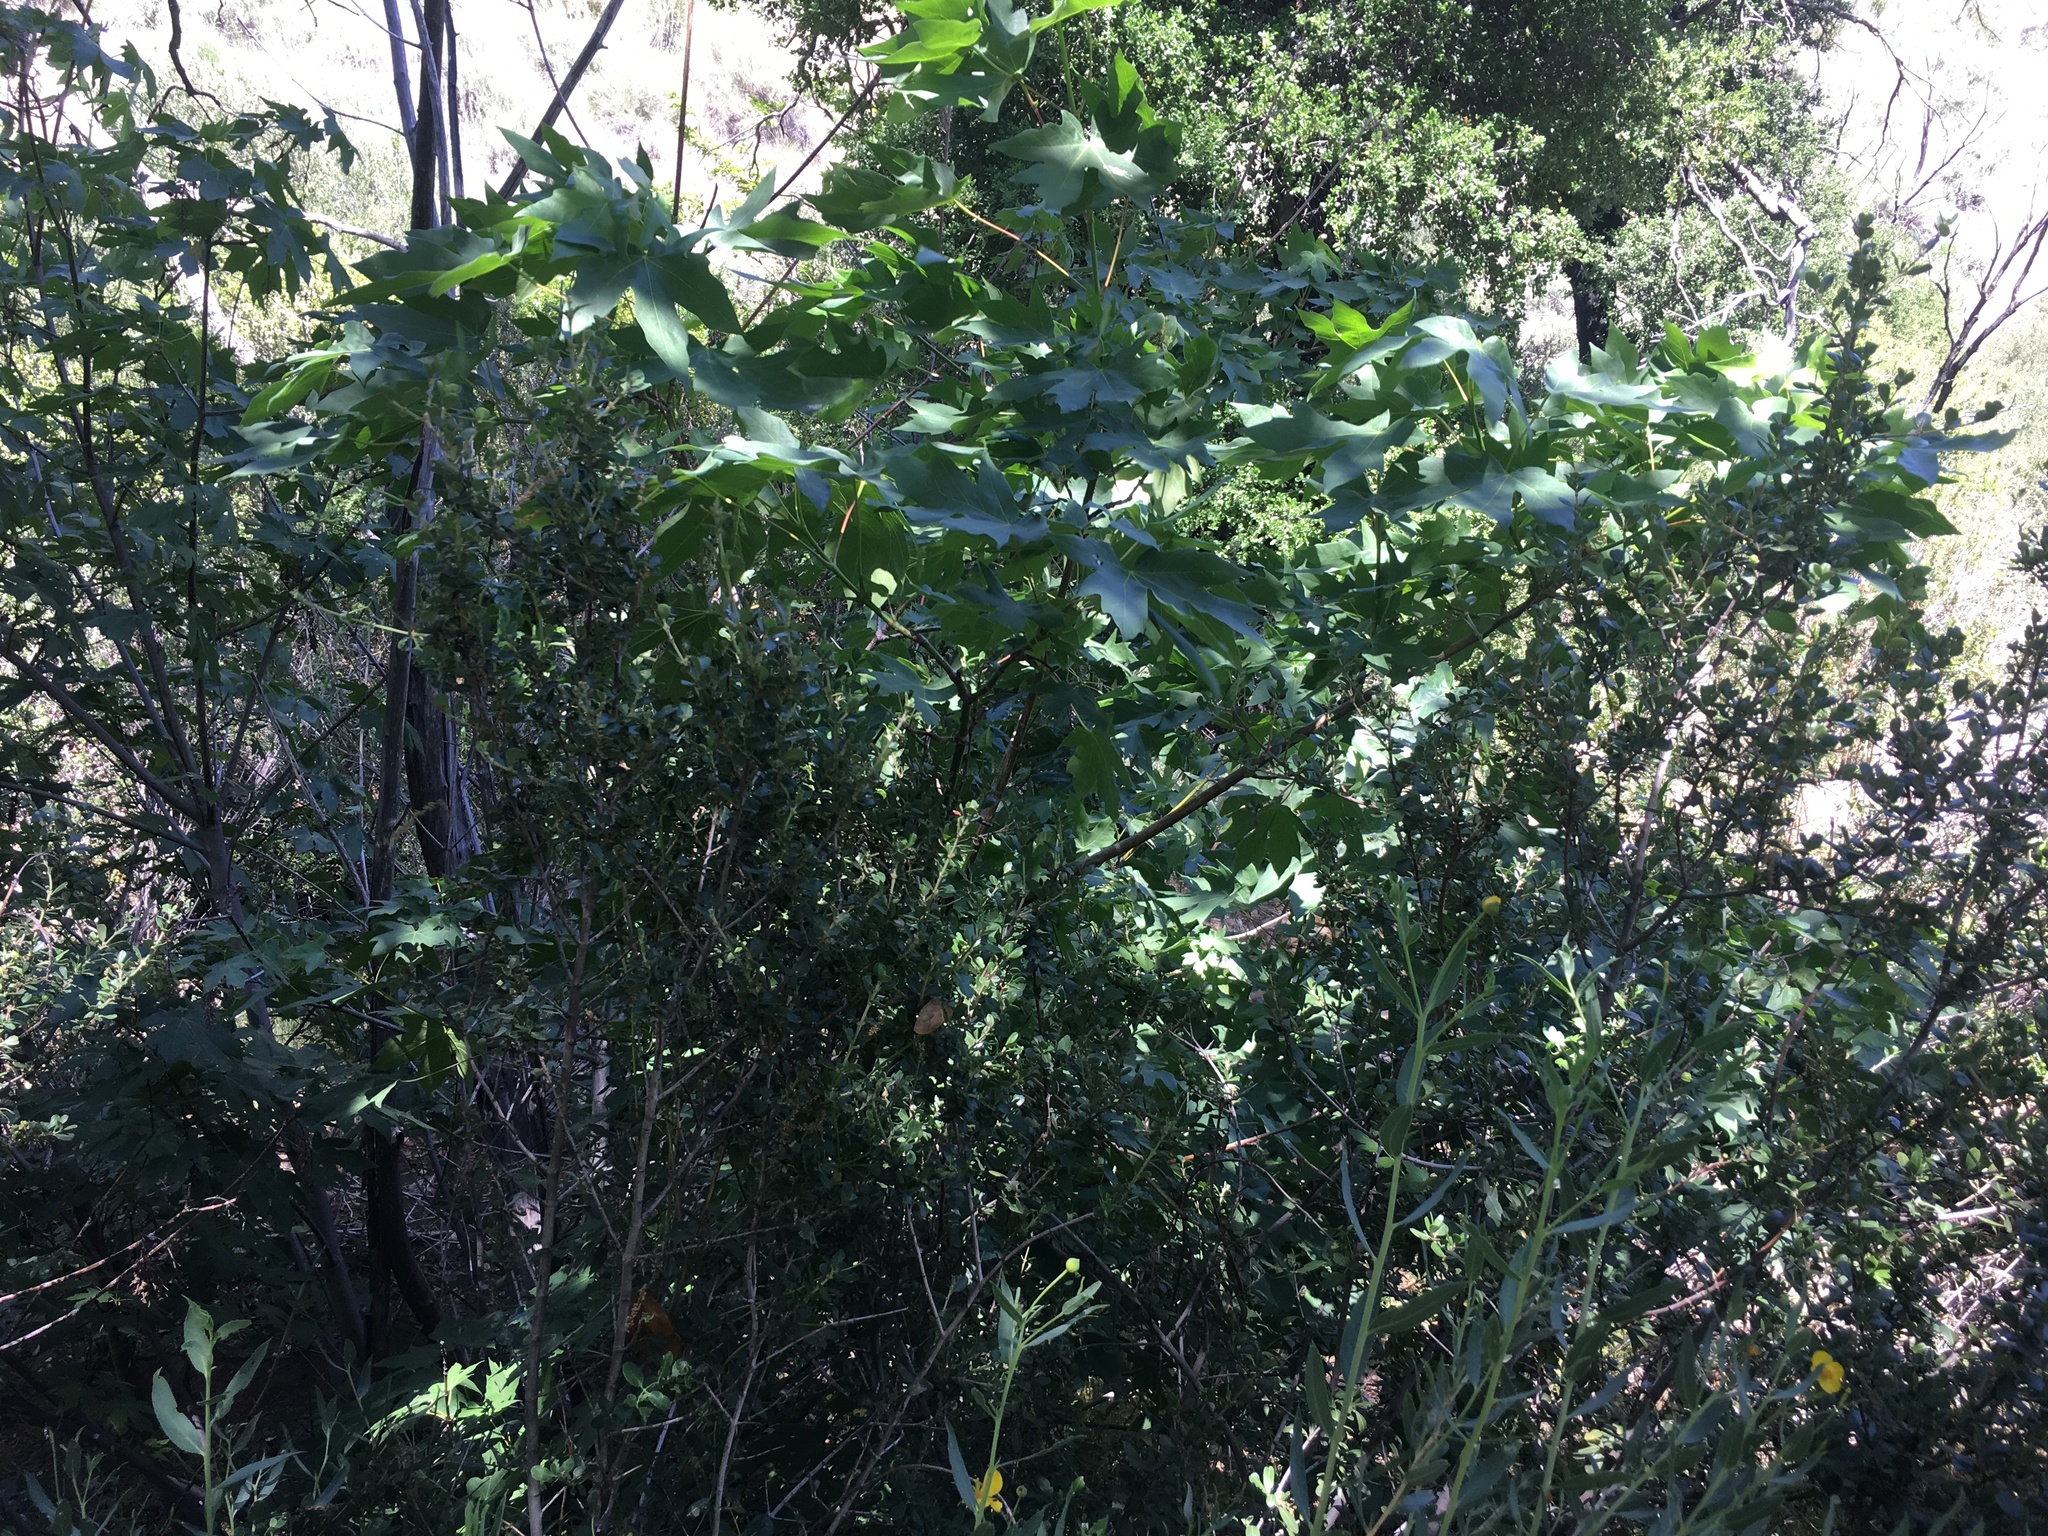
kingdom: Plantae
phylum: Tracheophyta
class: Magnoliopsida
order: Sapindales
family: Sapindaceae
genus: Acer
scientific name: Acer macrophyllum
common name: Oregon maple
